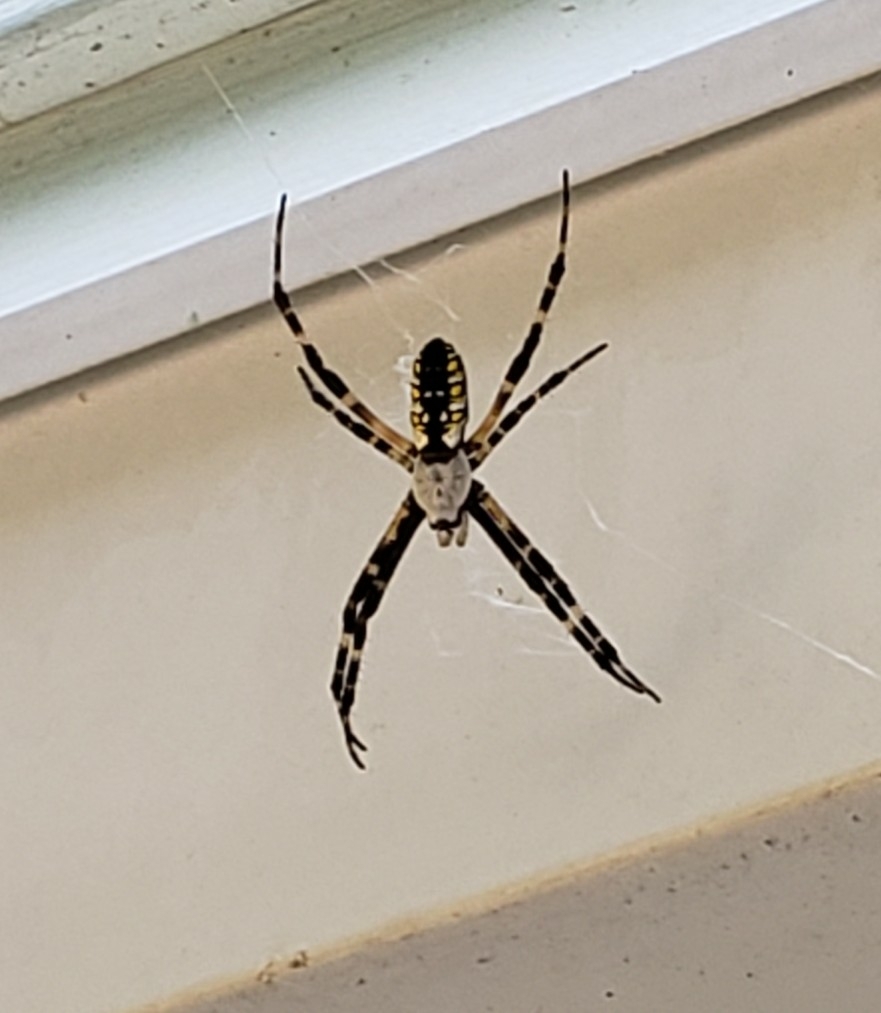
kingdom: Animalia
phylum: Arthropoda
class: Arachnida
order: Araneae
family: Araneidae
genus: Argiope
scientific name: Argiope aurantia
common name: Orb weavers
